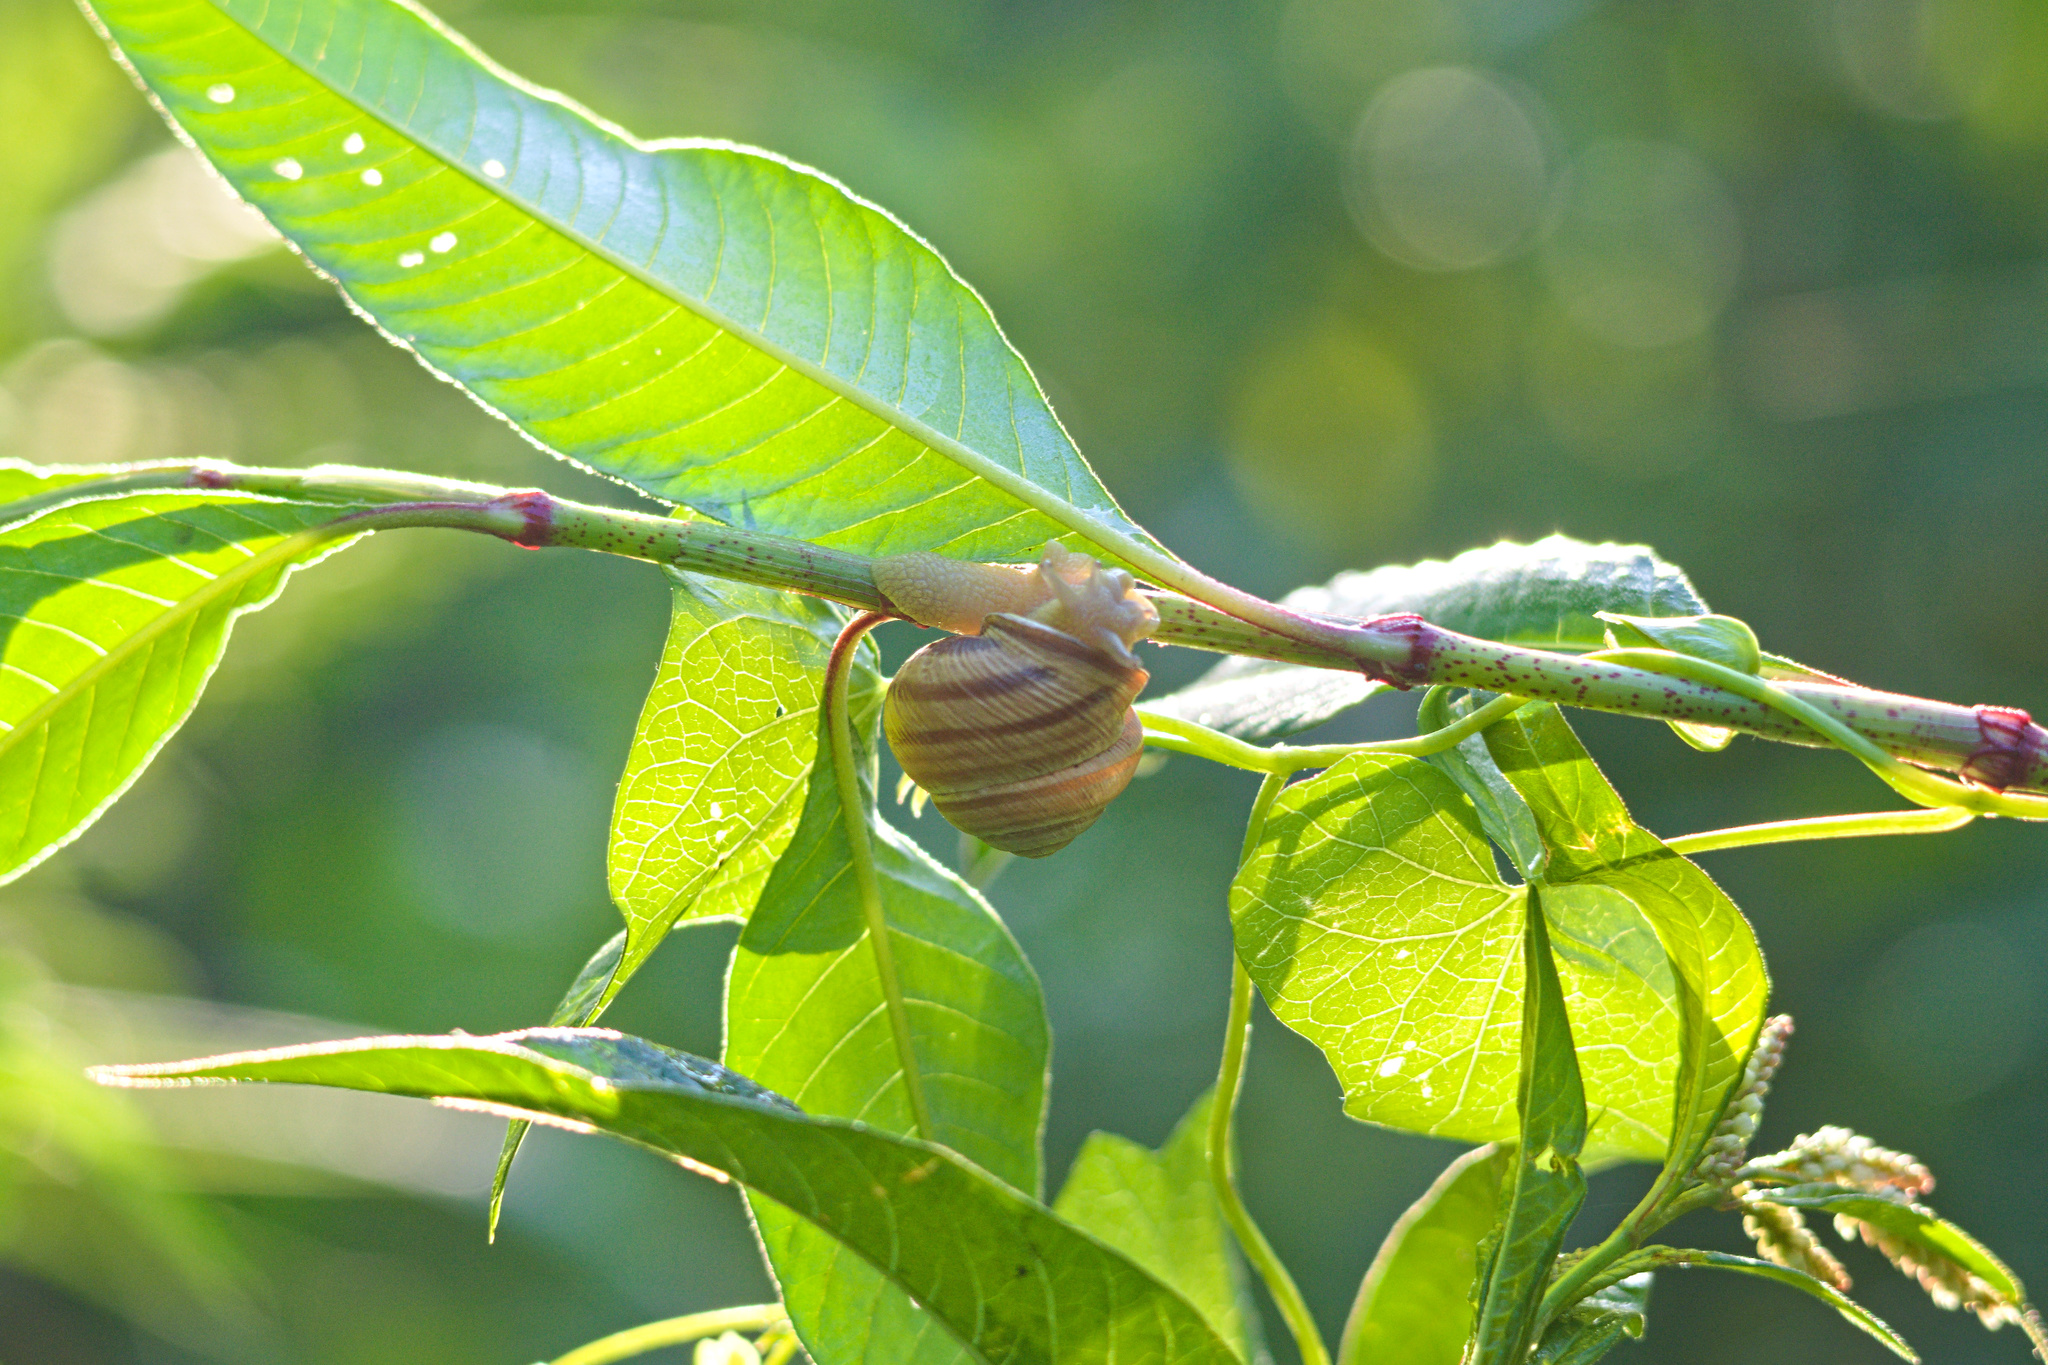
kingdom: Animalia
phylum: Mollusca
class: Gastropoda
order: Stylommatophora
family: Helicidae
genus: Caucasotachea
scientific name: Caucasotachea vindobonensis
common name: European helicid land snail
